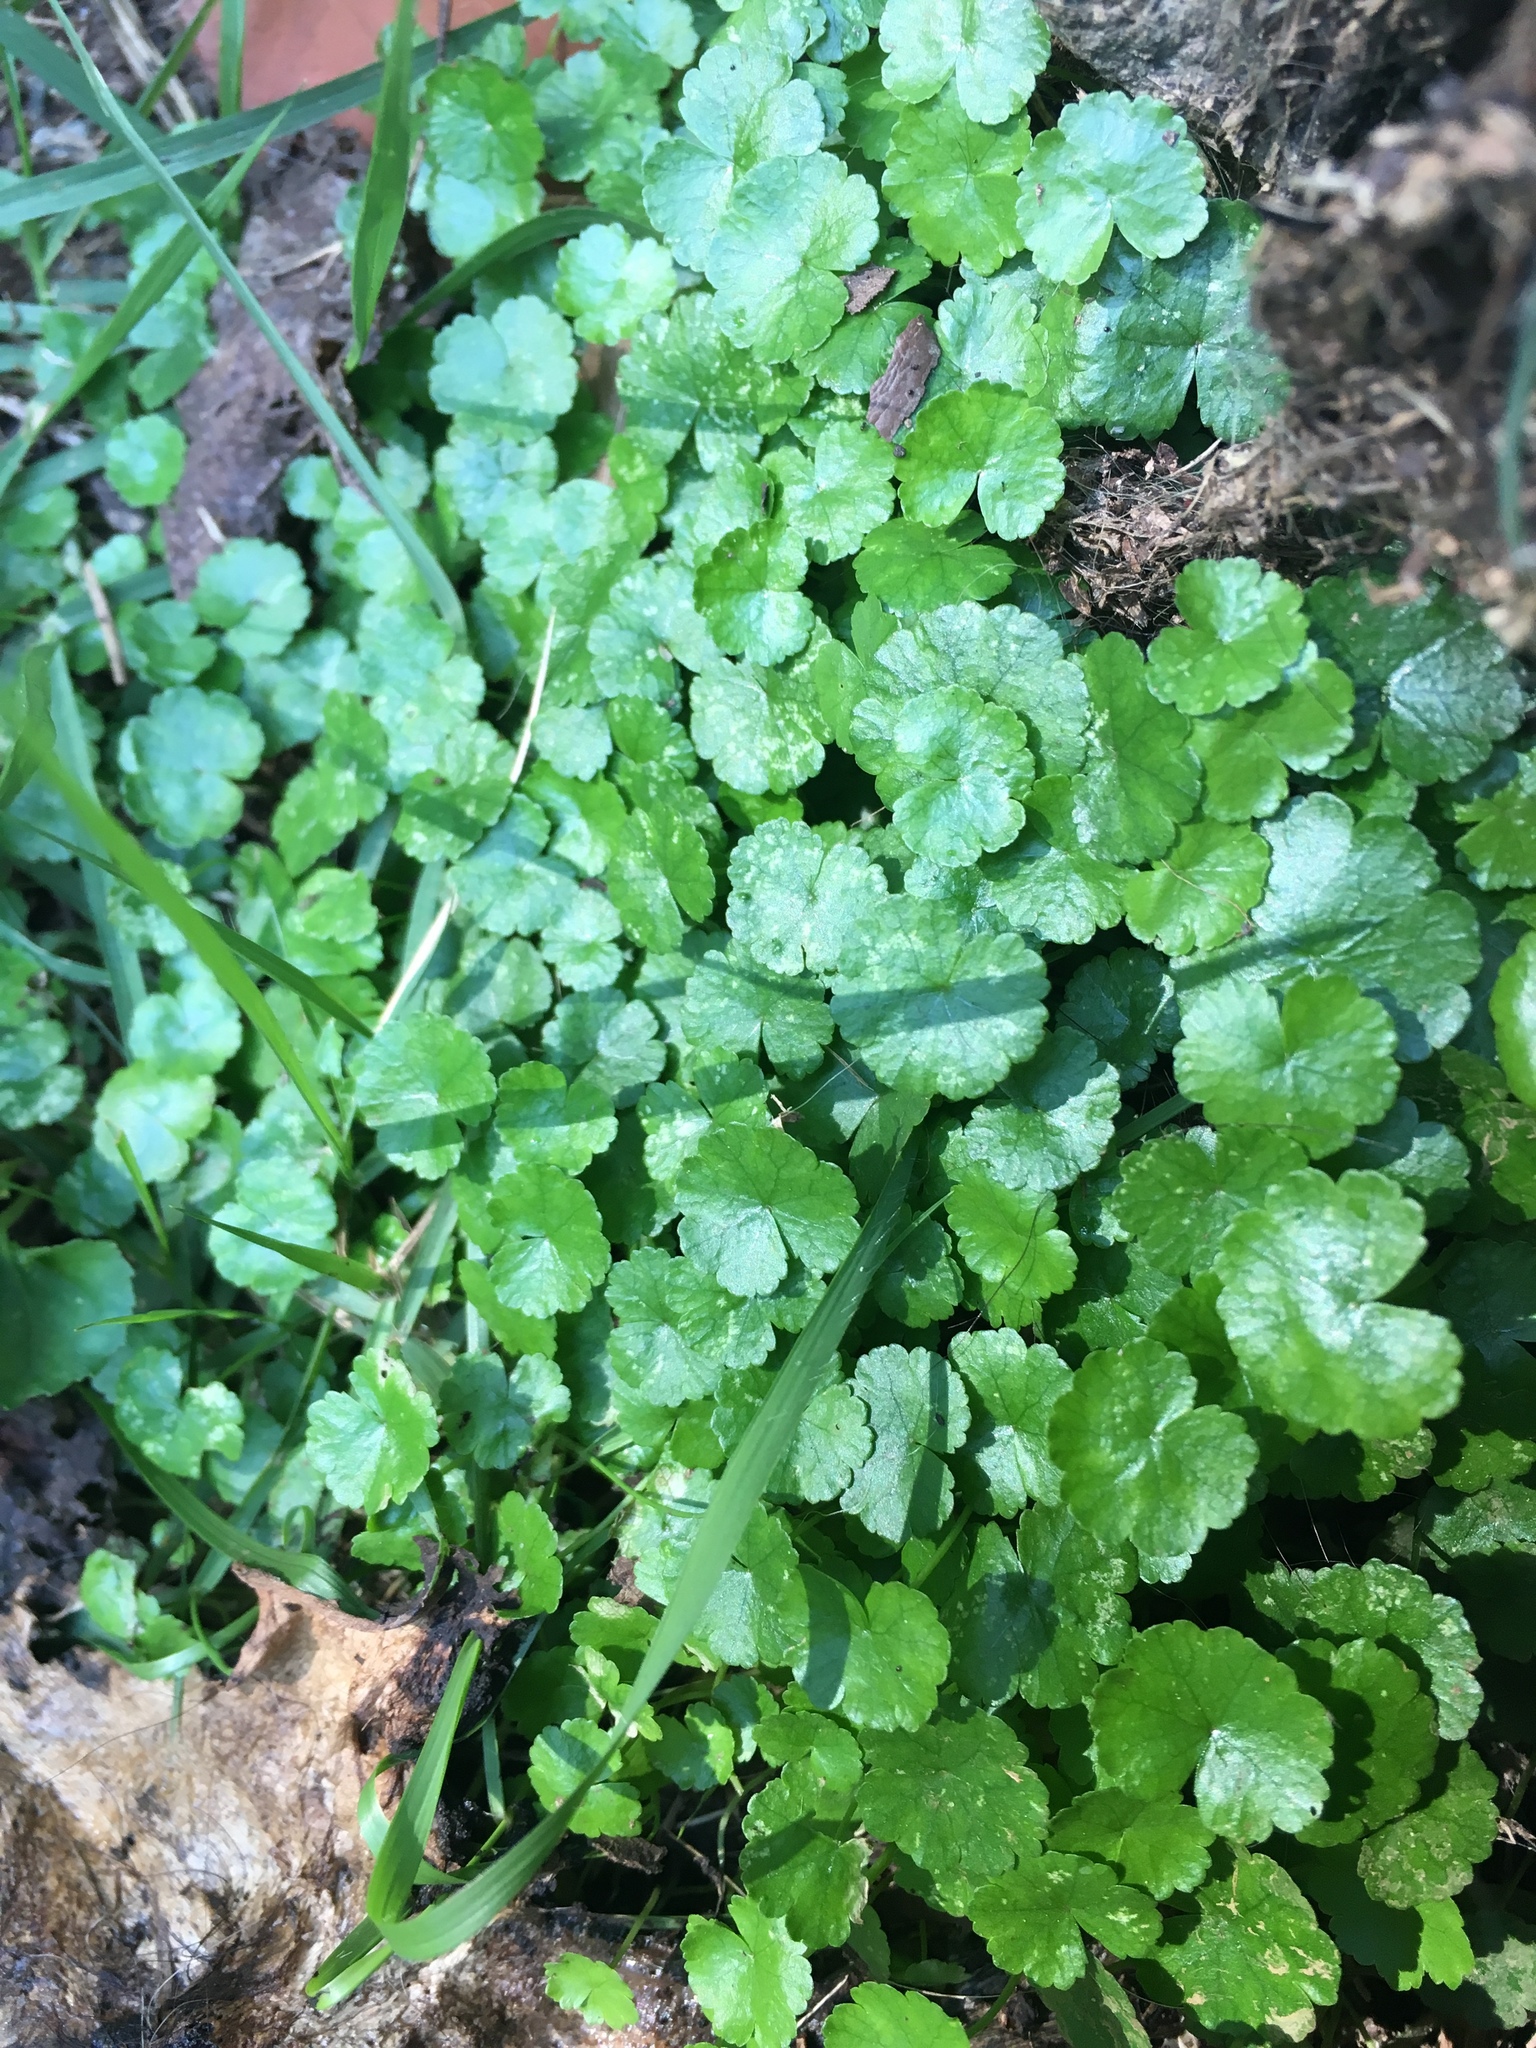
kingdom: Plantae
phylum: Tracheophyta
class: Magnoliopsida
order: Apiales
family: Araliaceae
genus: Hydrocotyle
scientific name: Hydrocotyle sibthorpioides
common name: Lawn marshpennywort
